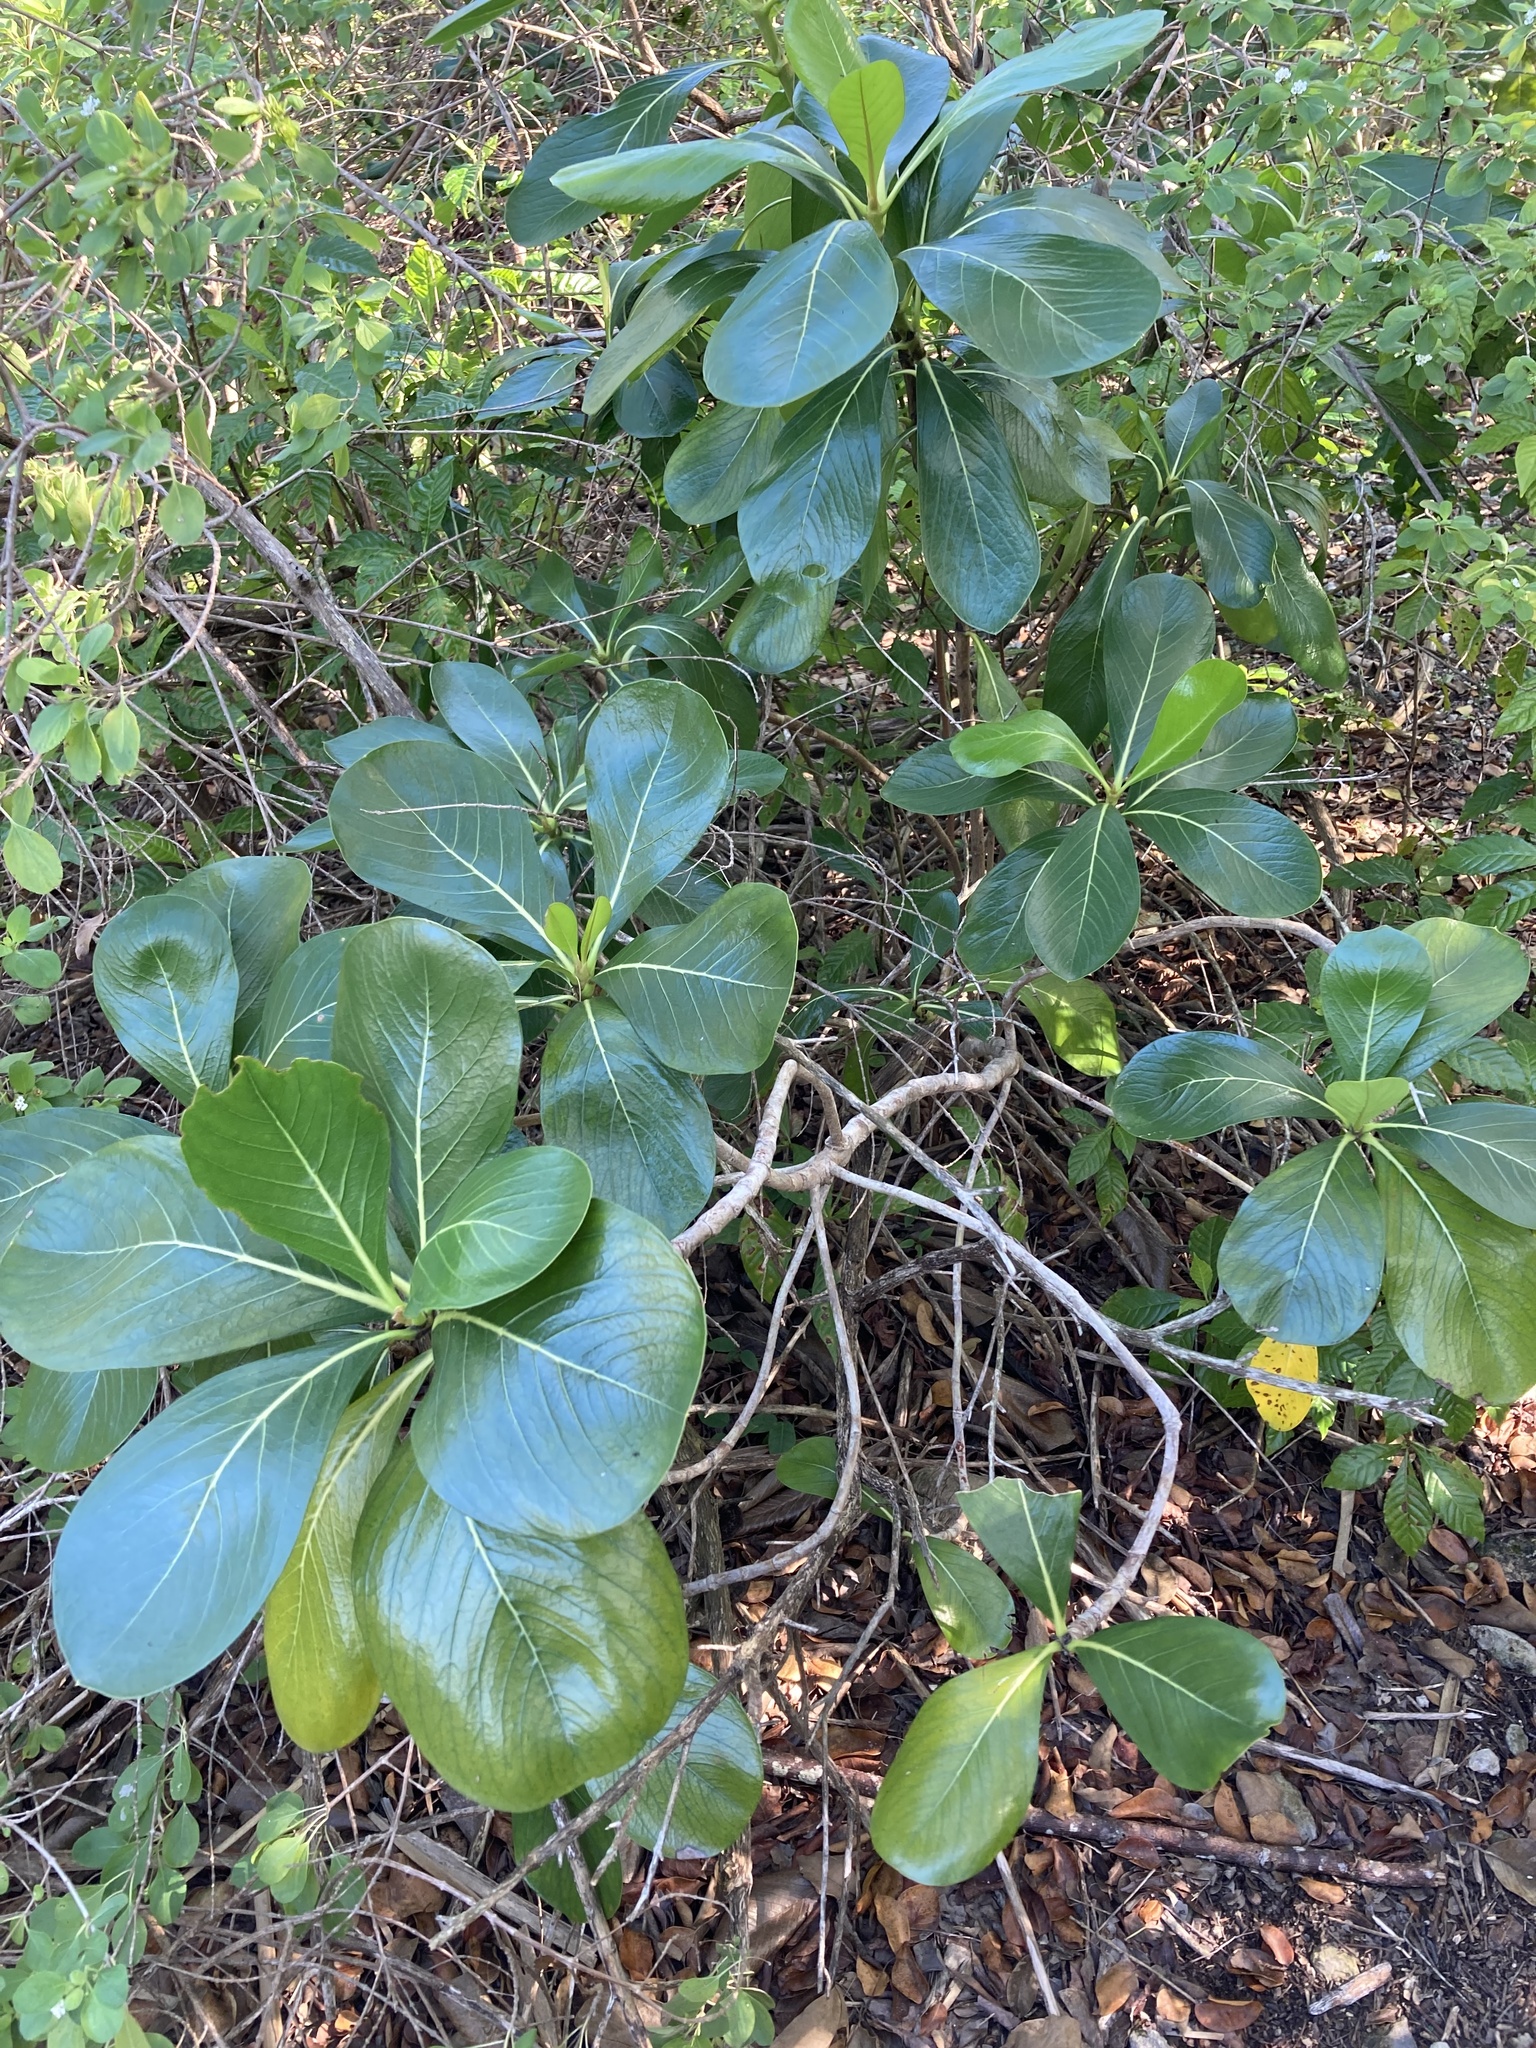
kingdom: Plantae
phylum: Tracheophyta
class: Magnoliopsida
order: Gentianales
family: Rubiaceae
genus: Casasia
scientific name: Casasia clusiifolia
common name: Seven-year apple
